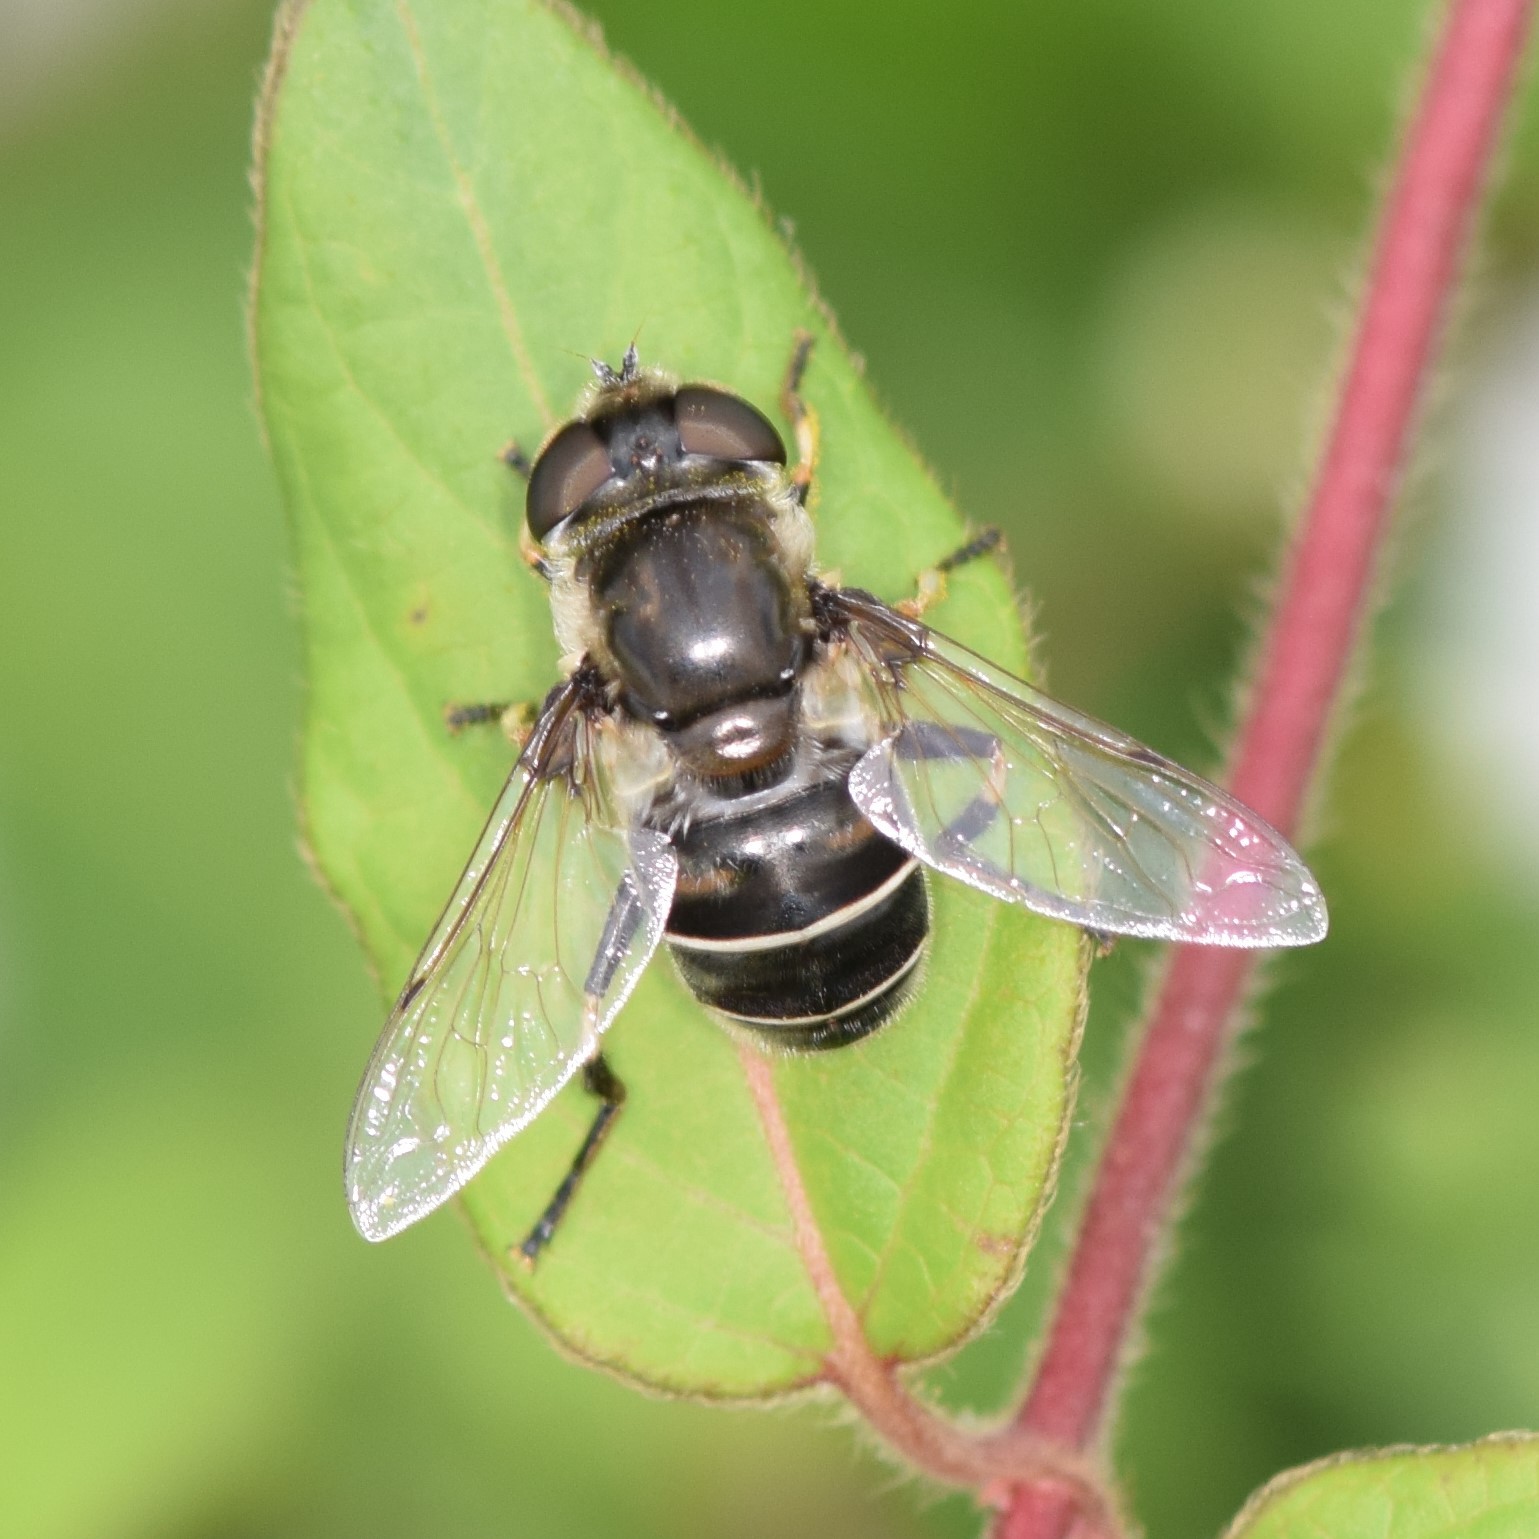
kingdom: Animalia
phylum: Arthropoda
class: Insecta
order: Diptera
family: Syrphidae
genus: Eristalis
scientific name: Eristalis dimidiata
